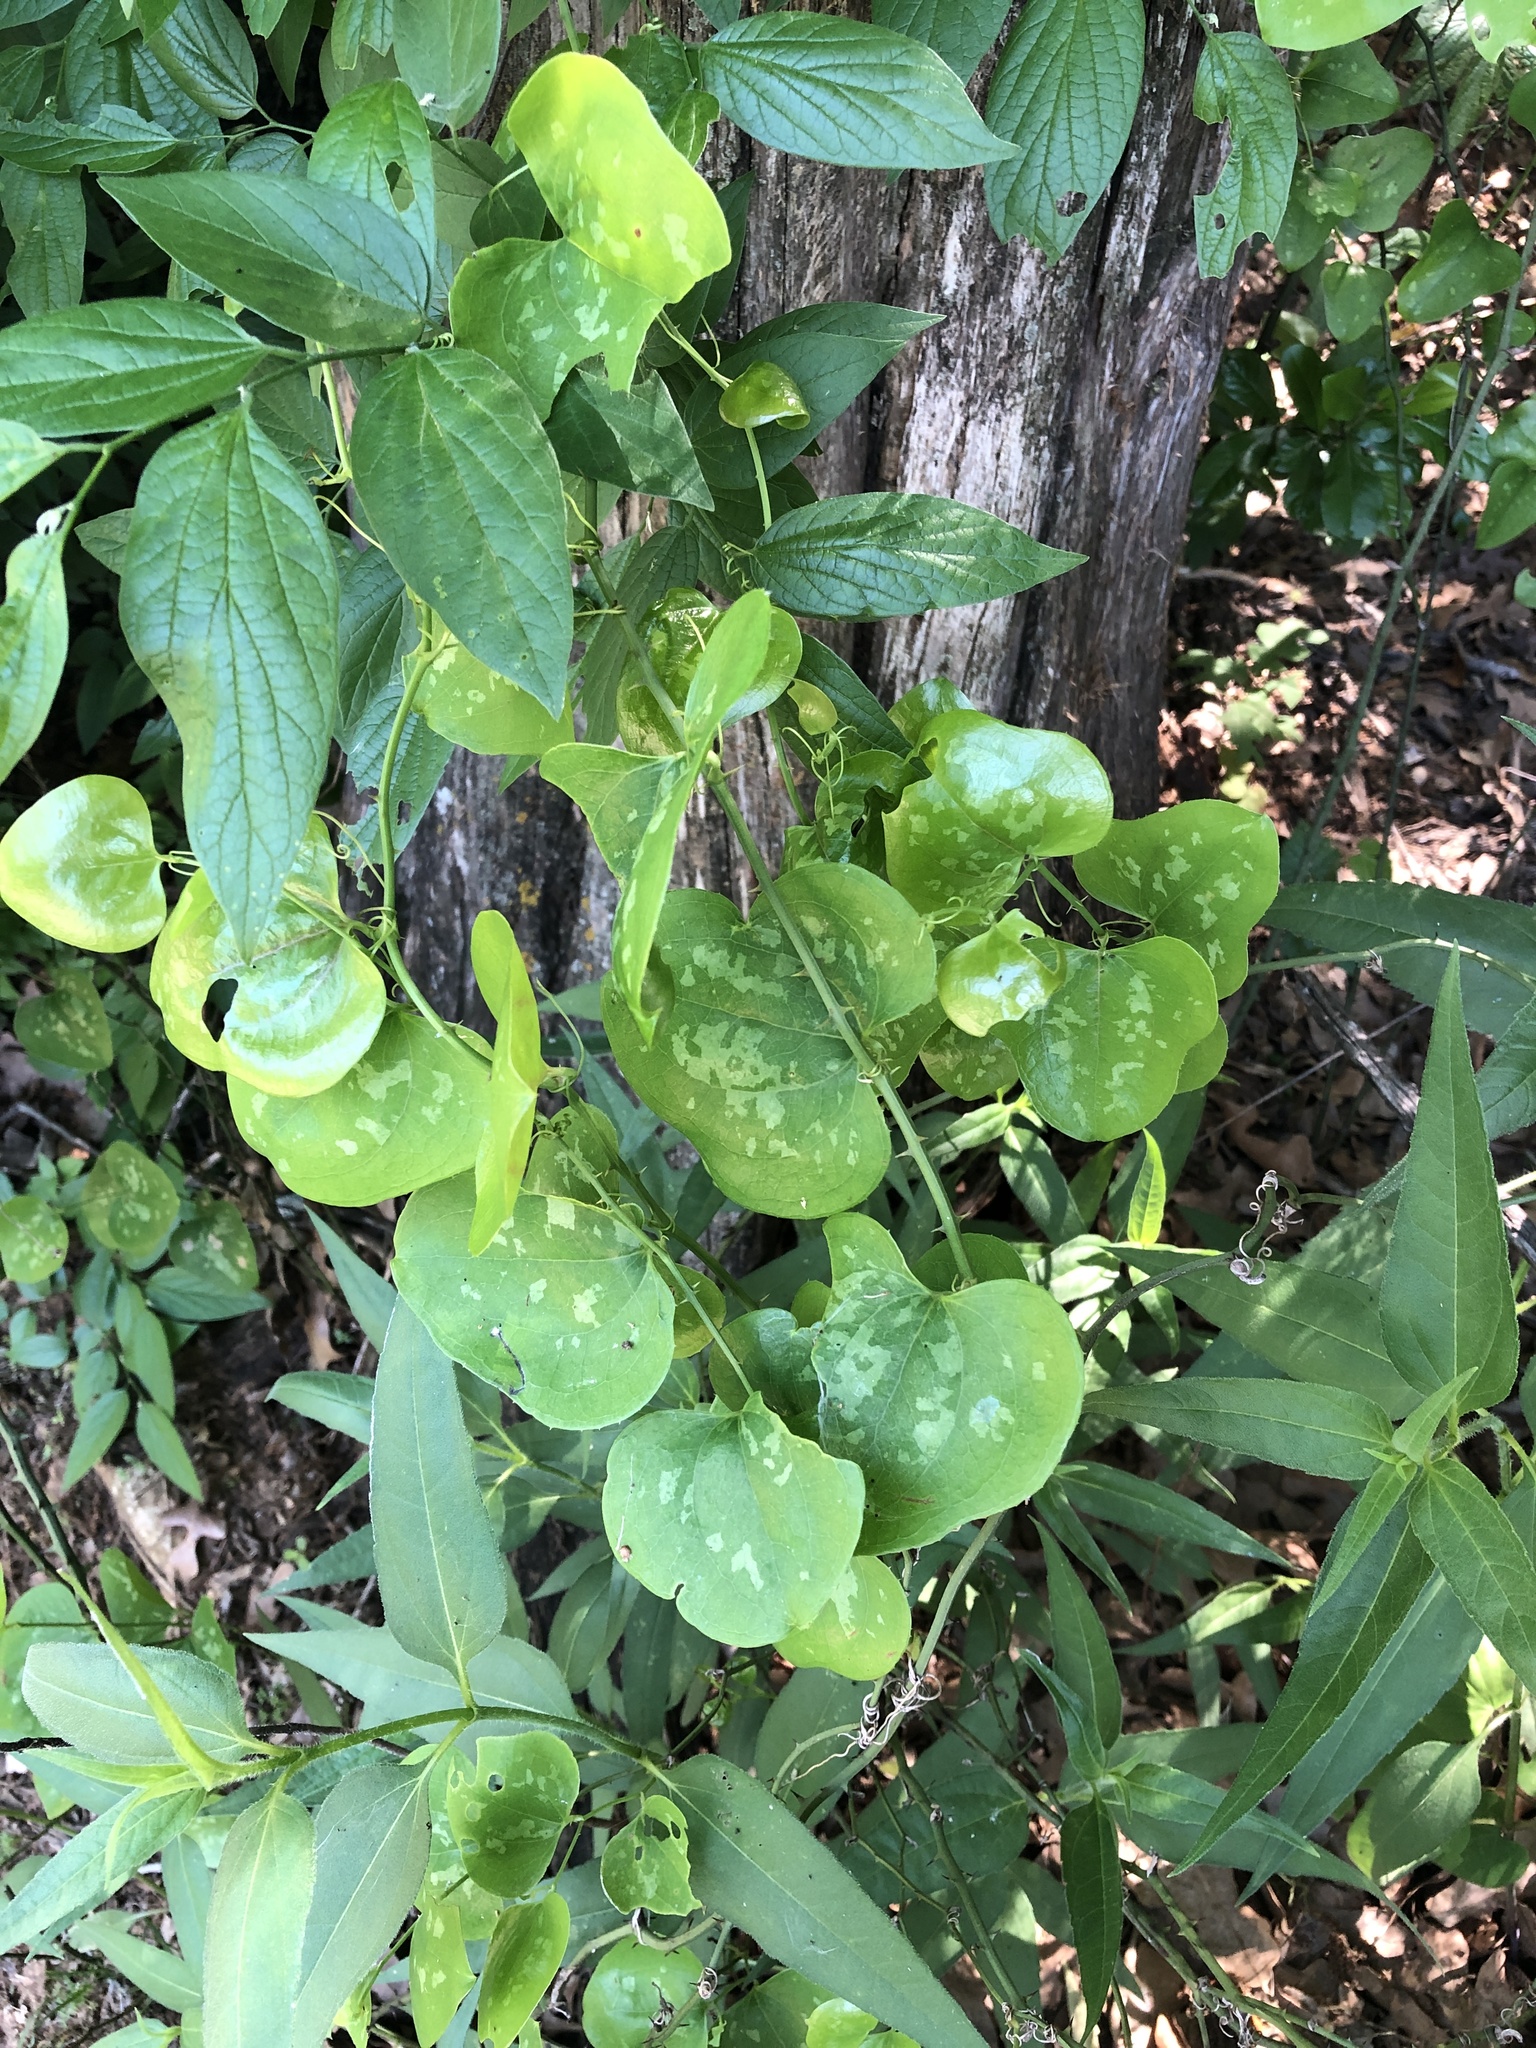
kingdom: Plantae
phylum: Tracheophyta
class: Liliopsida
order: Liliales
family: Smilacaceae
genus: Smilax
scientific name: Smilax bona-nox
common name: Catbrier
